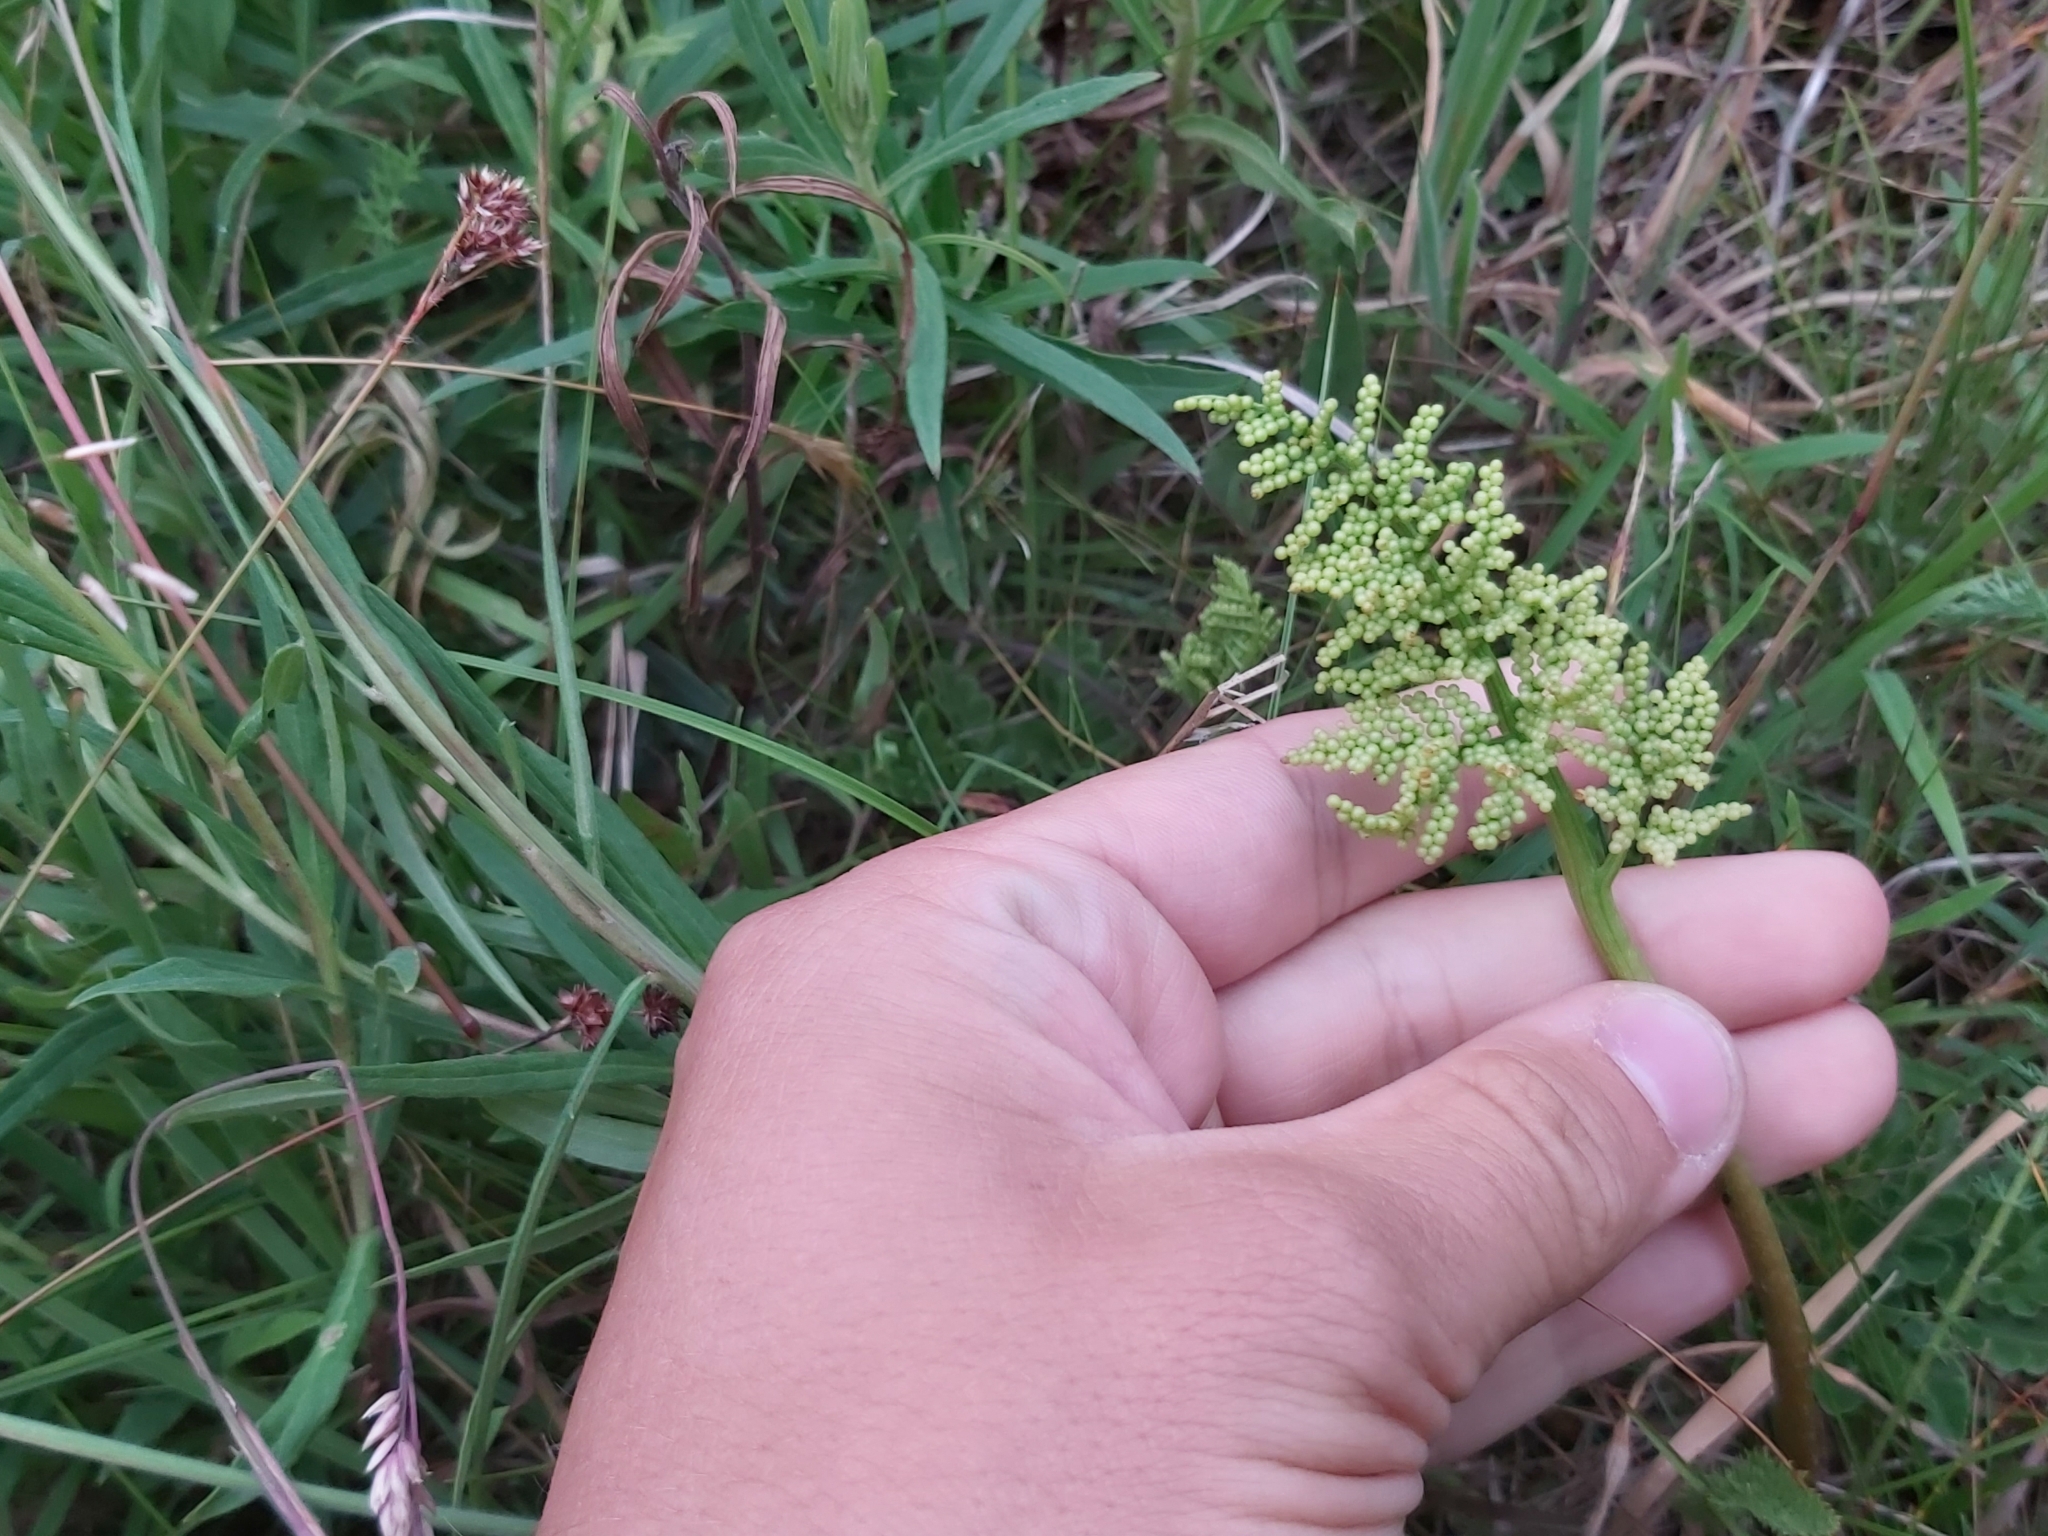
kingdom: Plantae
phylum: Tracheophyta
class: Polypodiopsida
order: Ophioglossales
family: Ophioglossaceae
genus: Sceptridium
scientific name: Sceptridium multifidum
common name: Leathery grape fern
